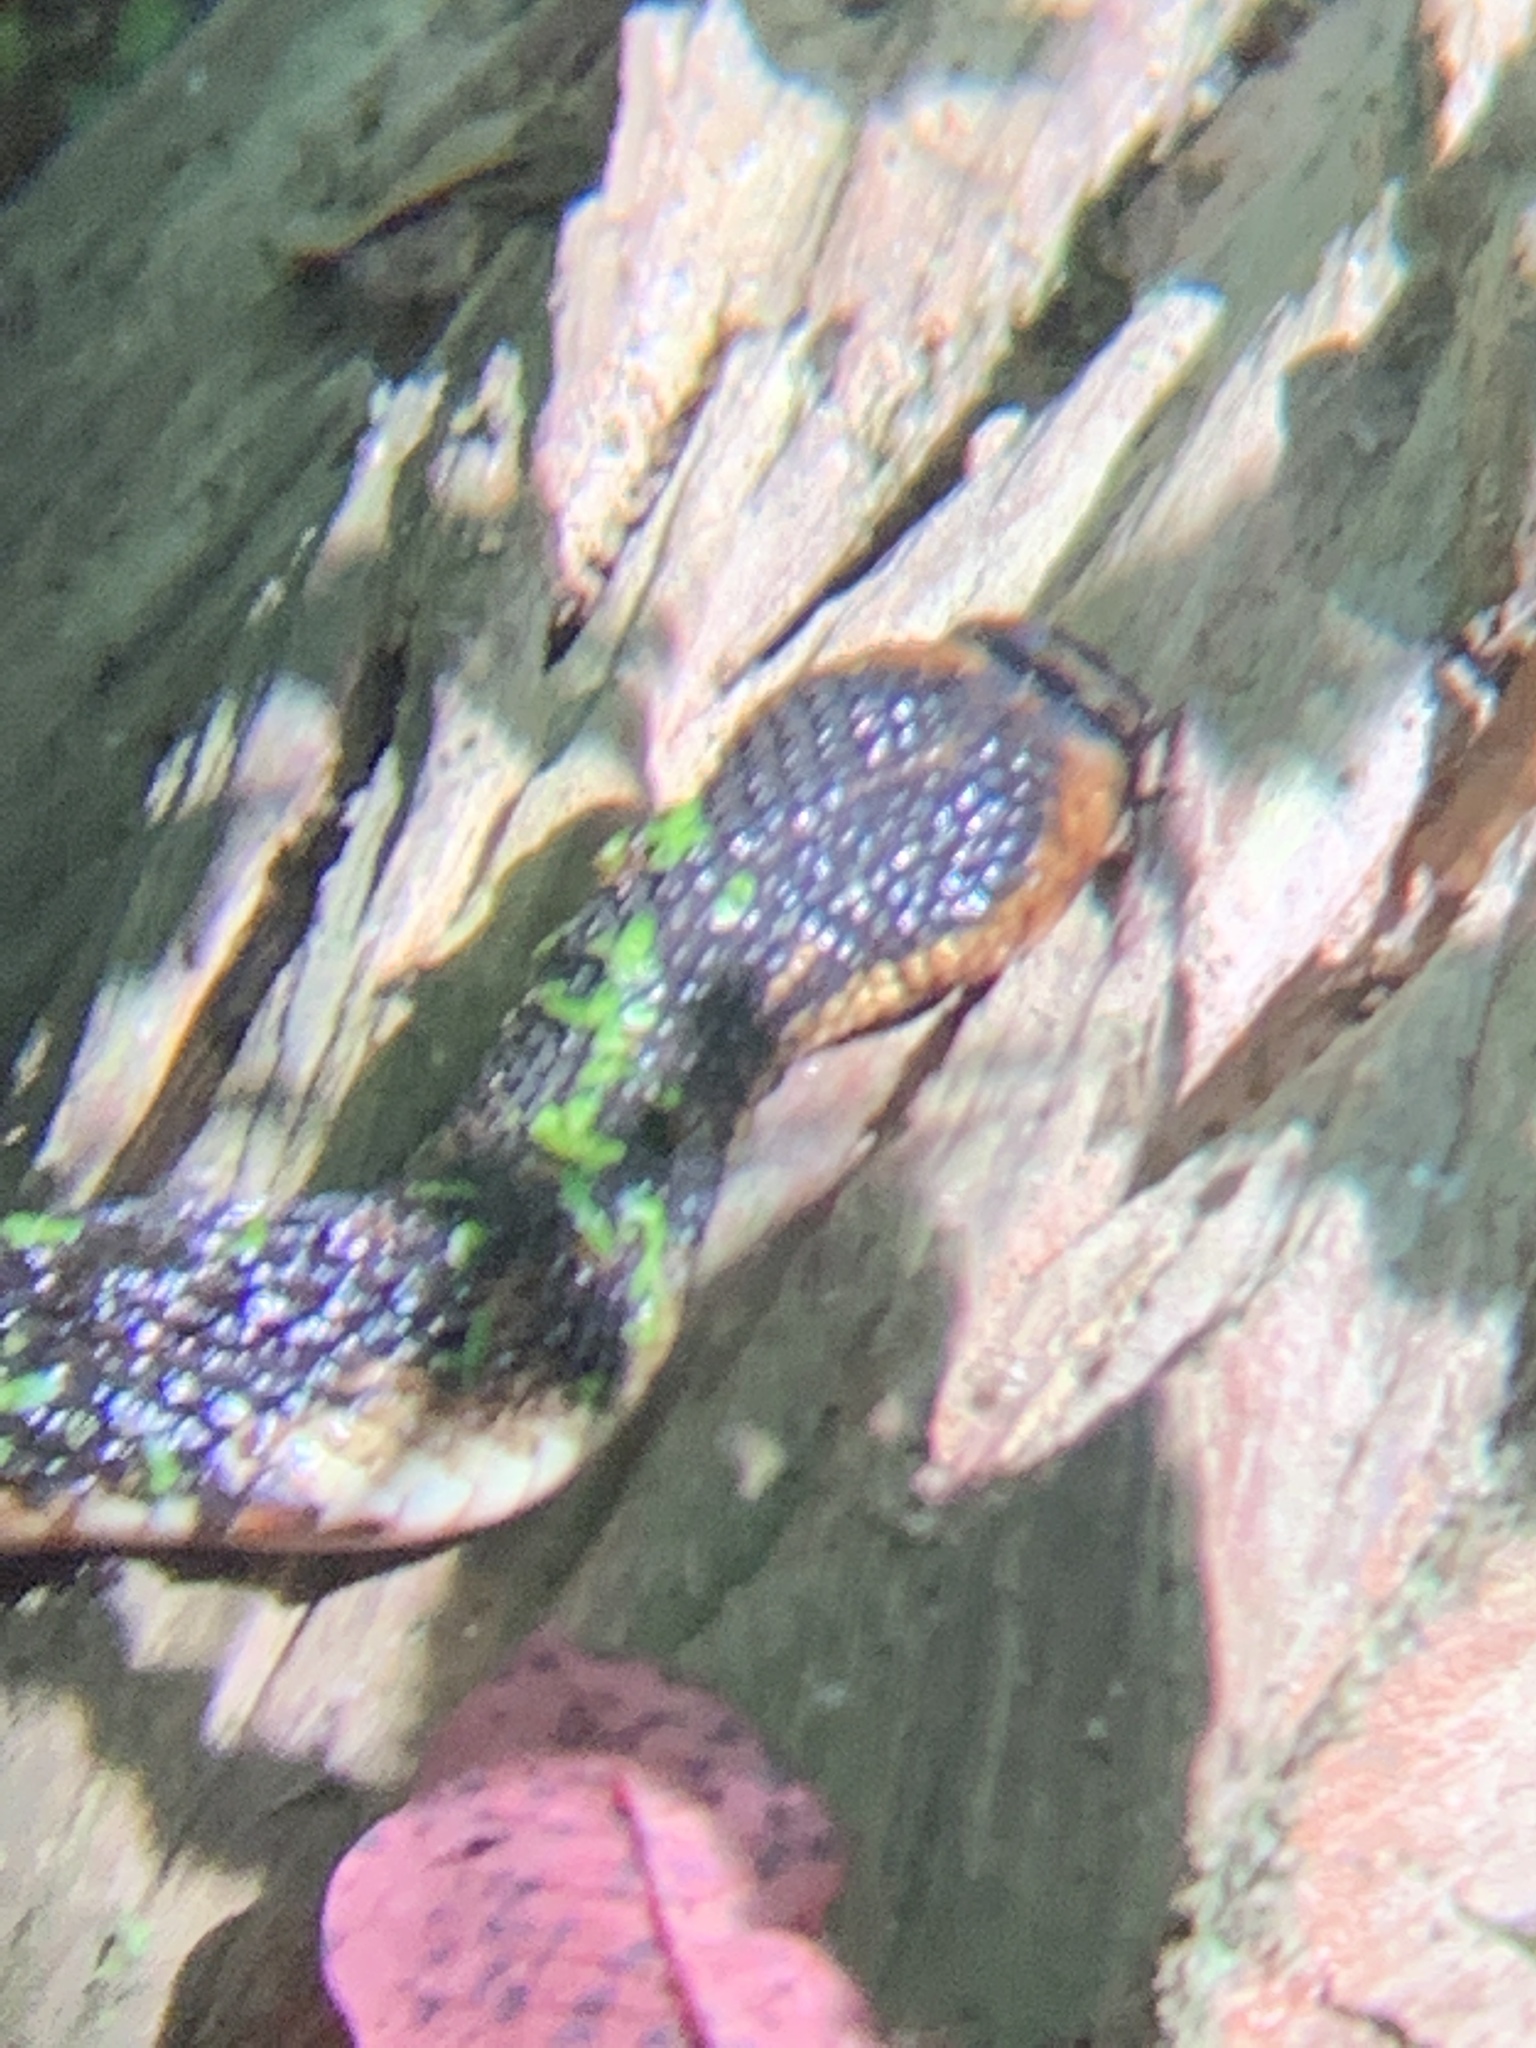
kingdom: Animalia
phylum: Chordata
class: Squamata
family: Colubridae
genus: Nerodia
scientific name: Nerodia fasciata
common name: Southern water snake
